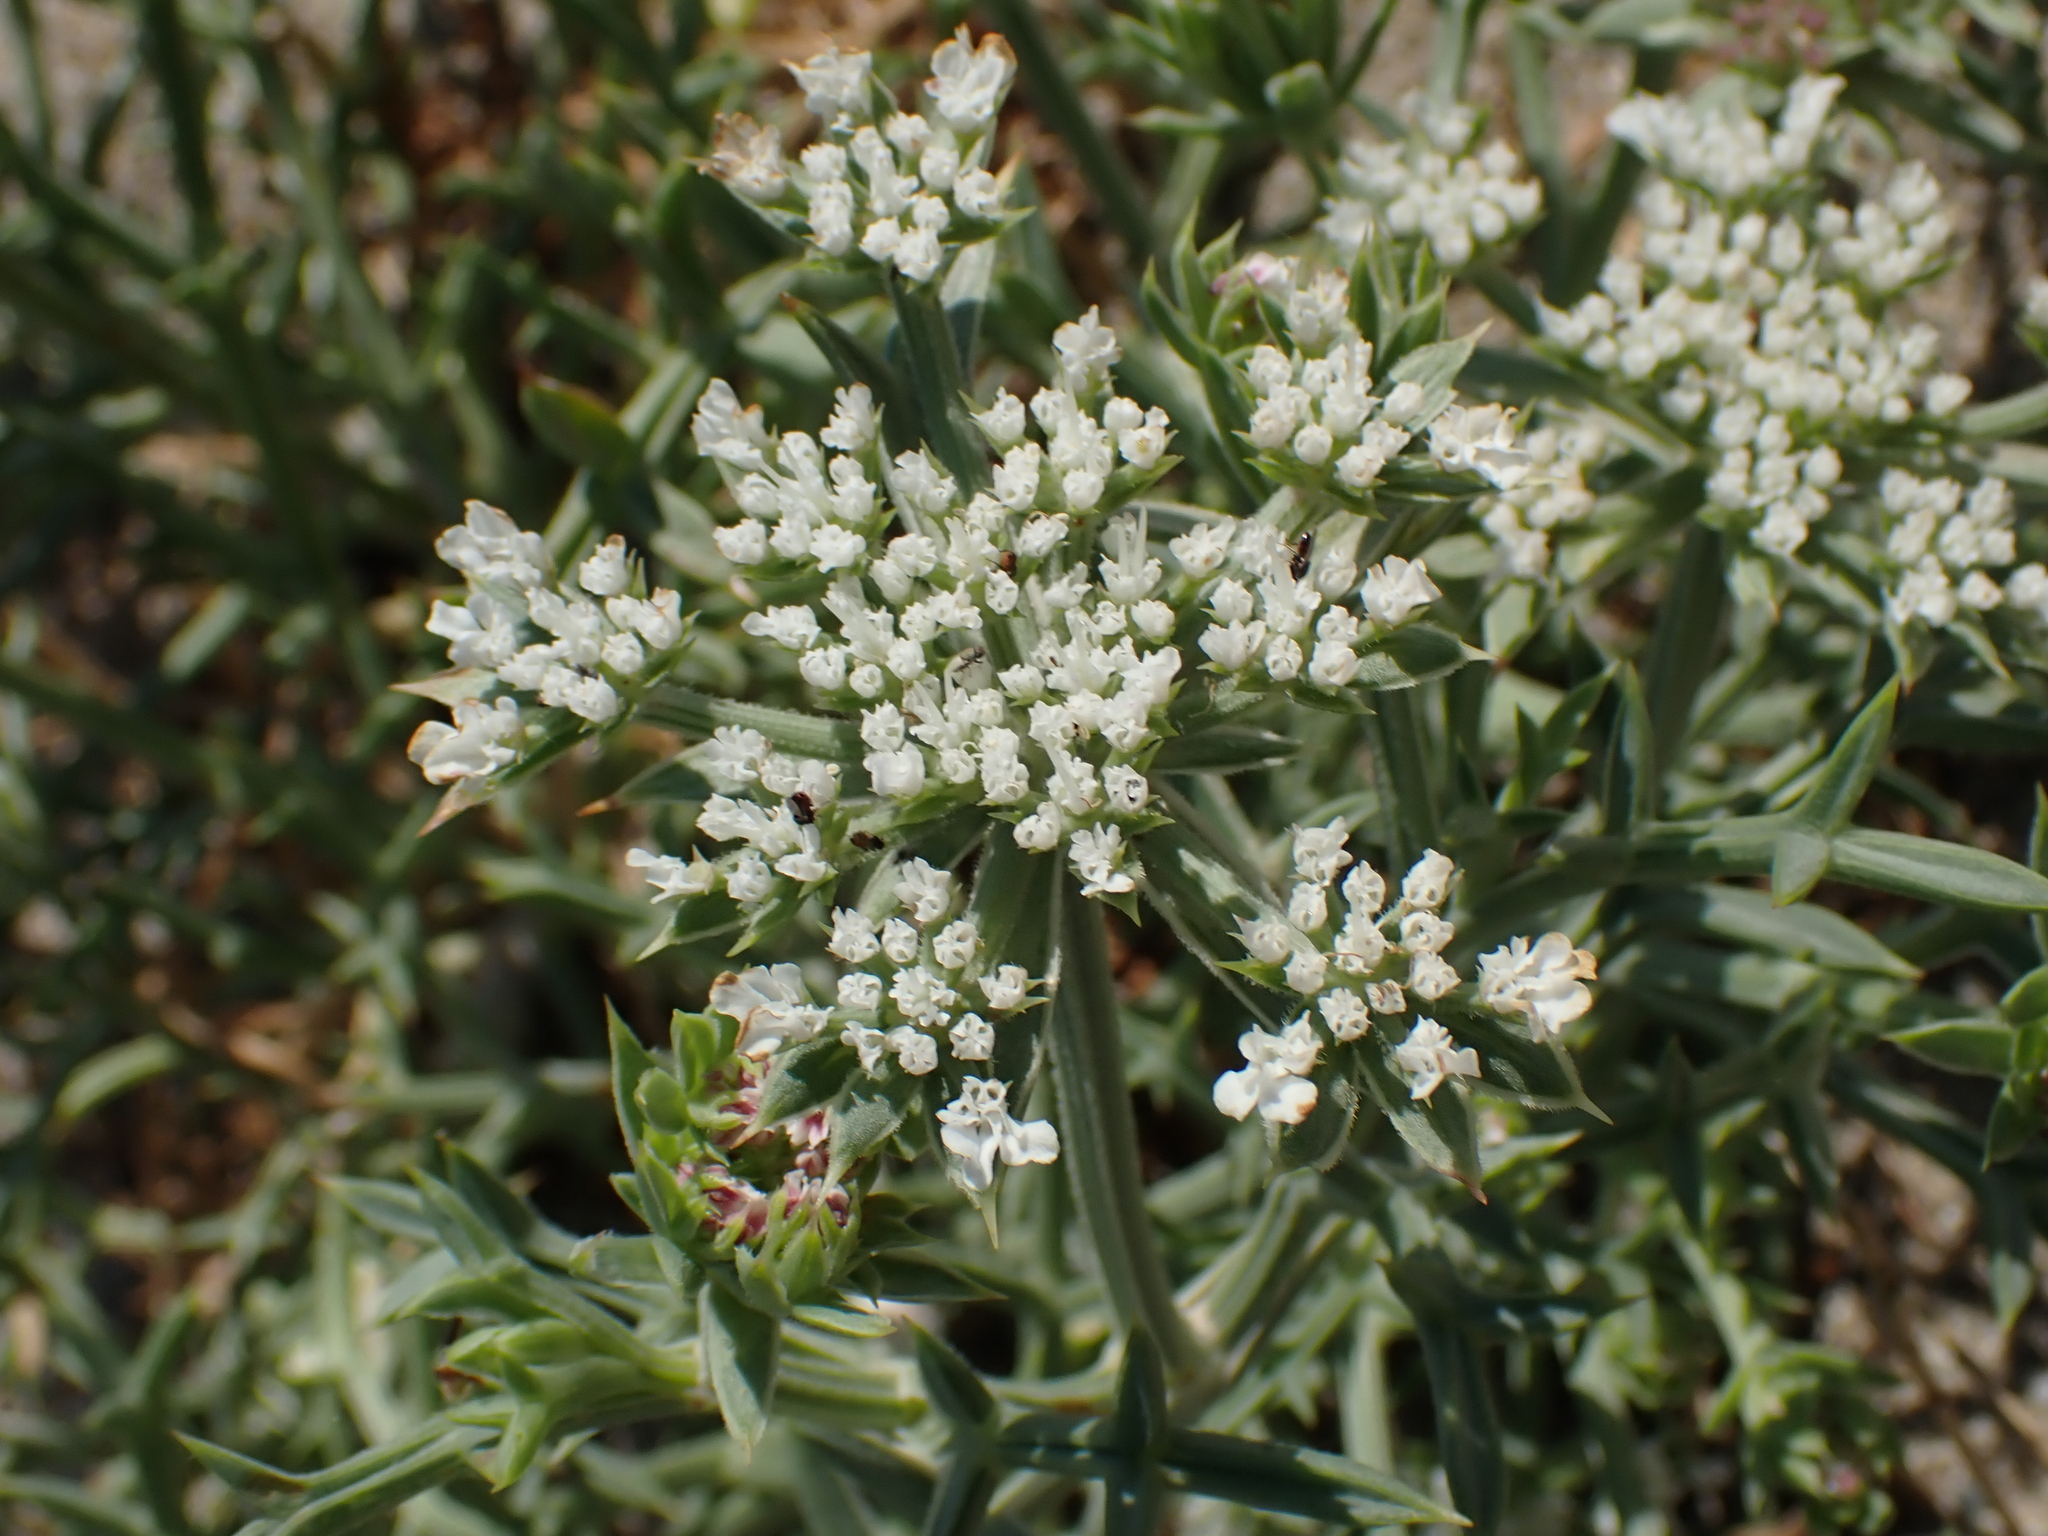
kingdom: Plantae
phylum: Tracheophyta
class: Magnoliopsida
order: Apiales
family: Apiaceae
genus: Echinophora
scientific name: Echinophora spinosa
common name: Prickly samphire
